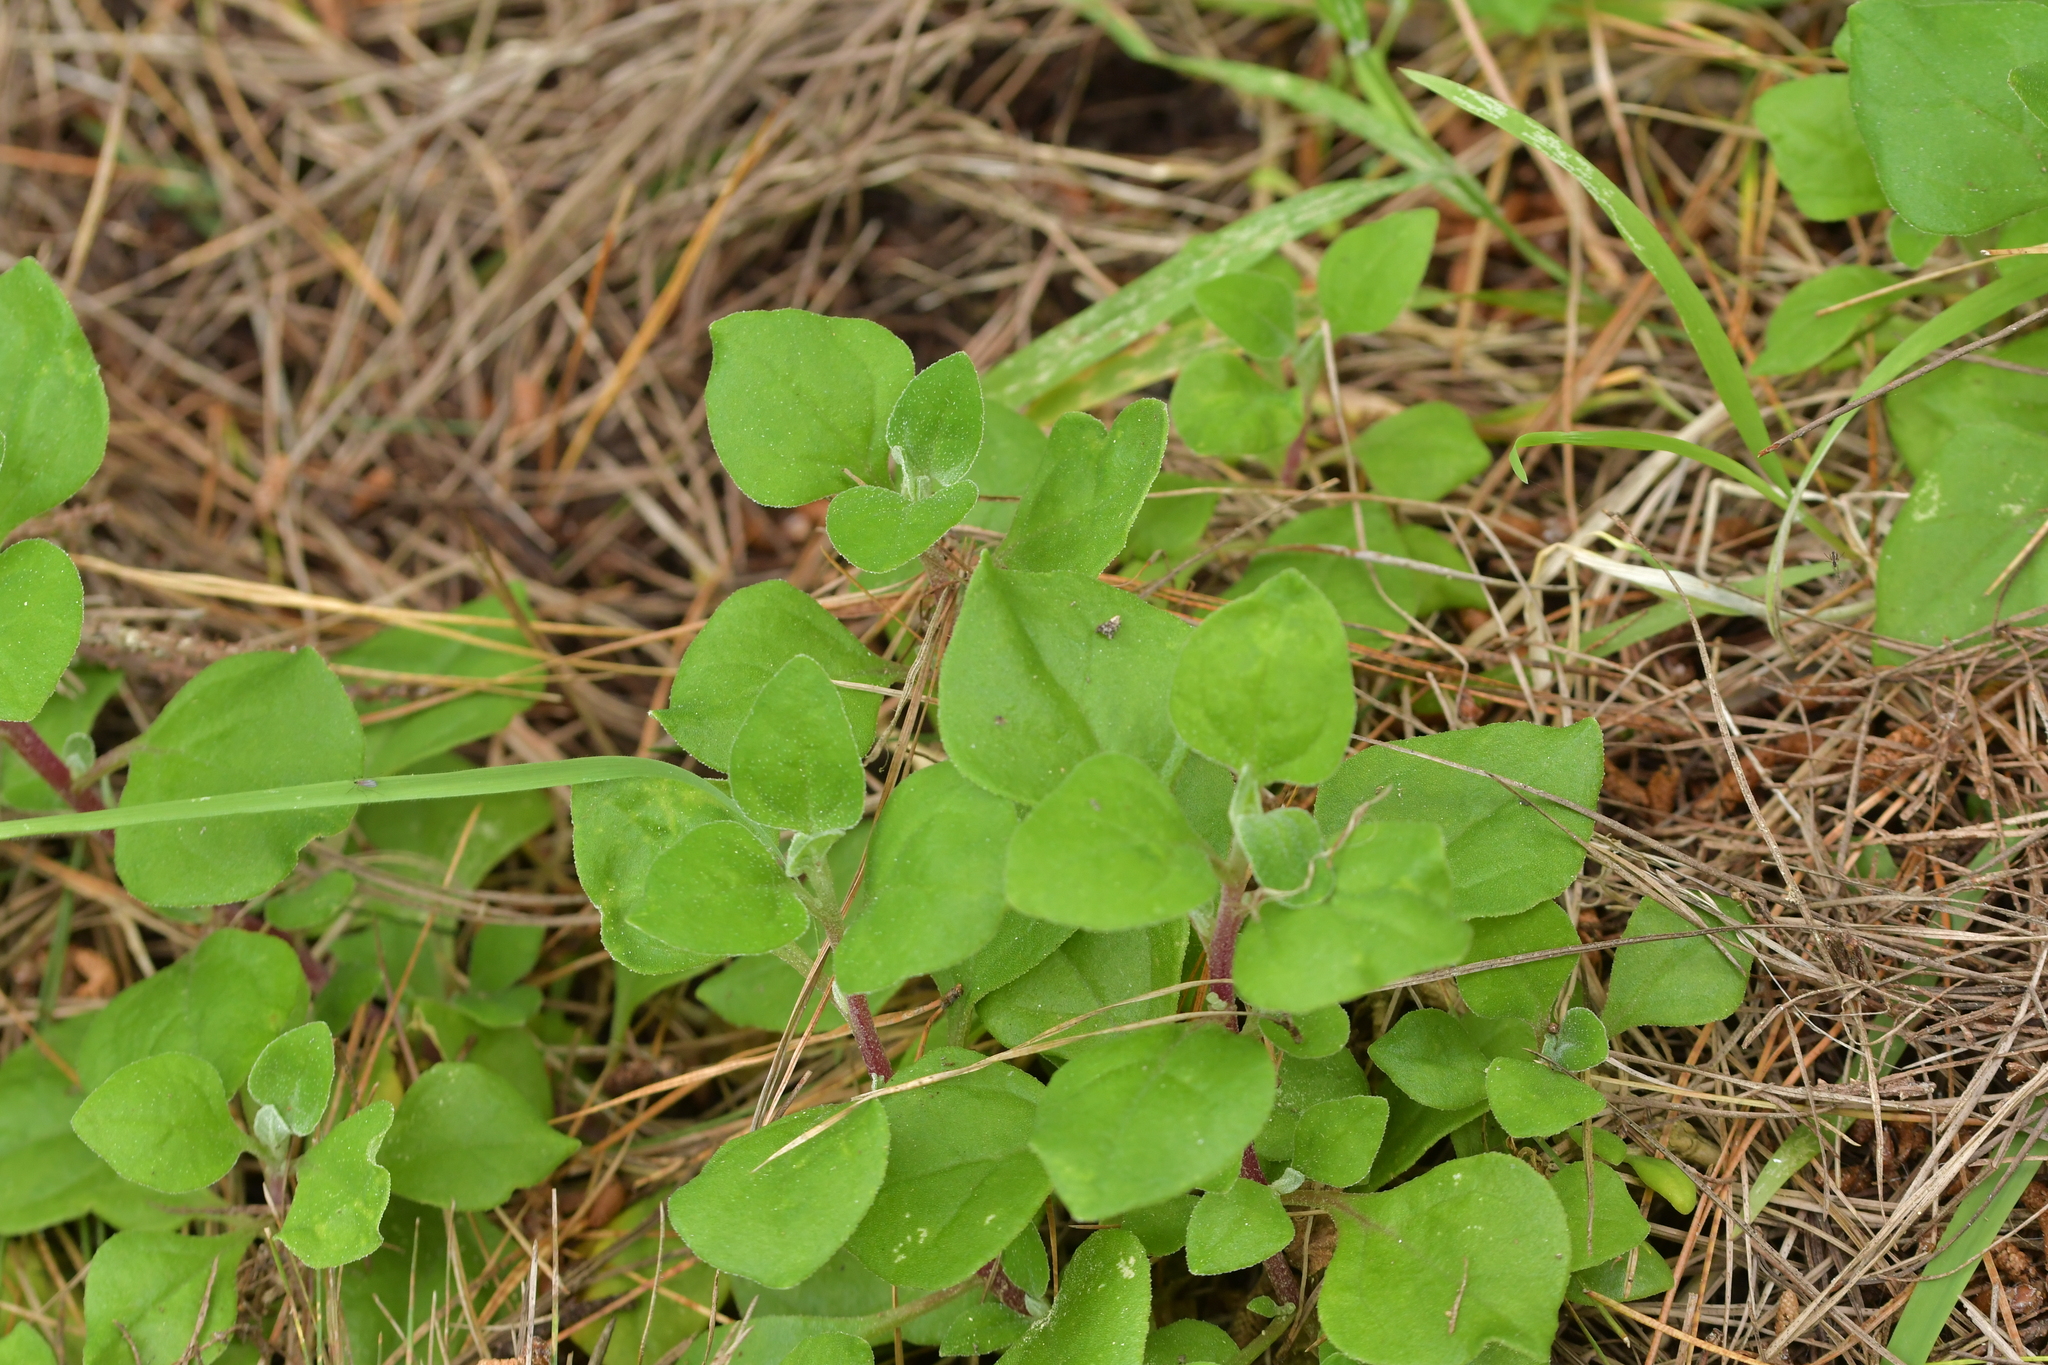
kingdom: Plantae
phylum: Tracheophyta
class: Magnoliopsida
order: Caryophyllales
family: Aizoaceae
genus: Tetragonia
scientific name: Tetragonia implexicoma
